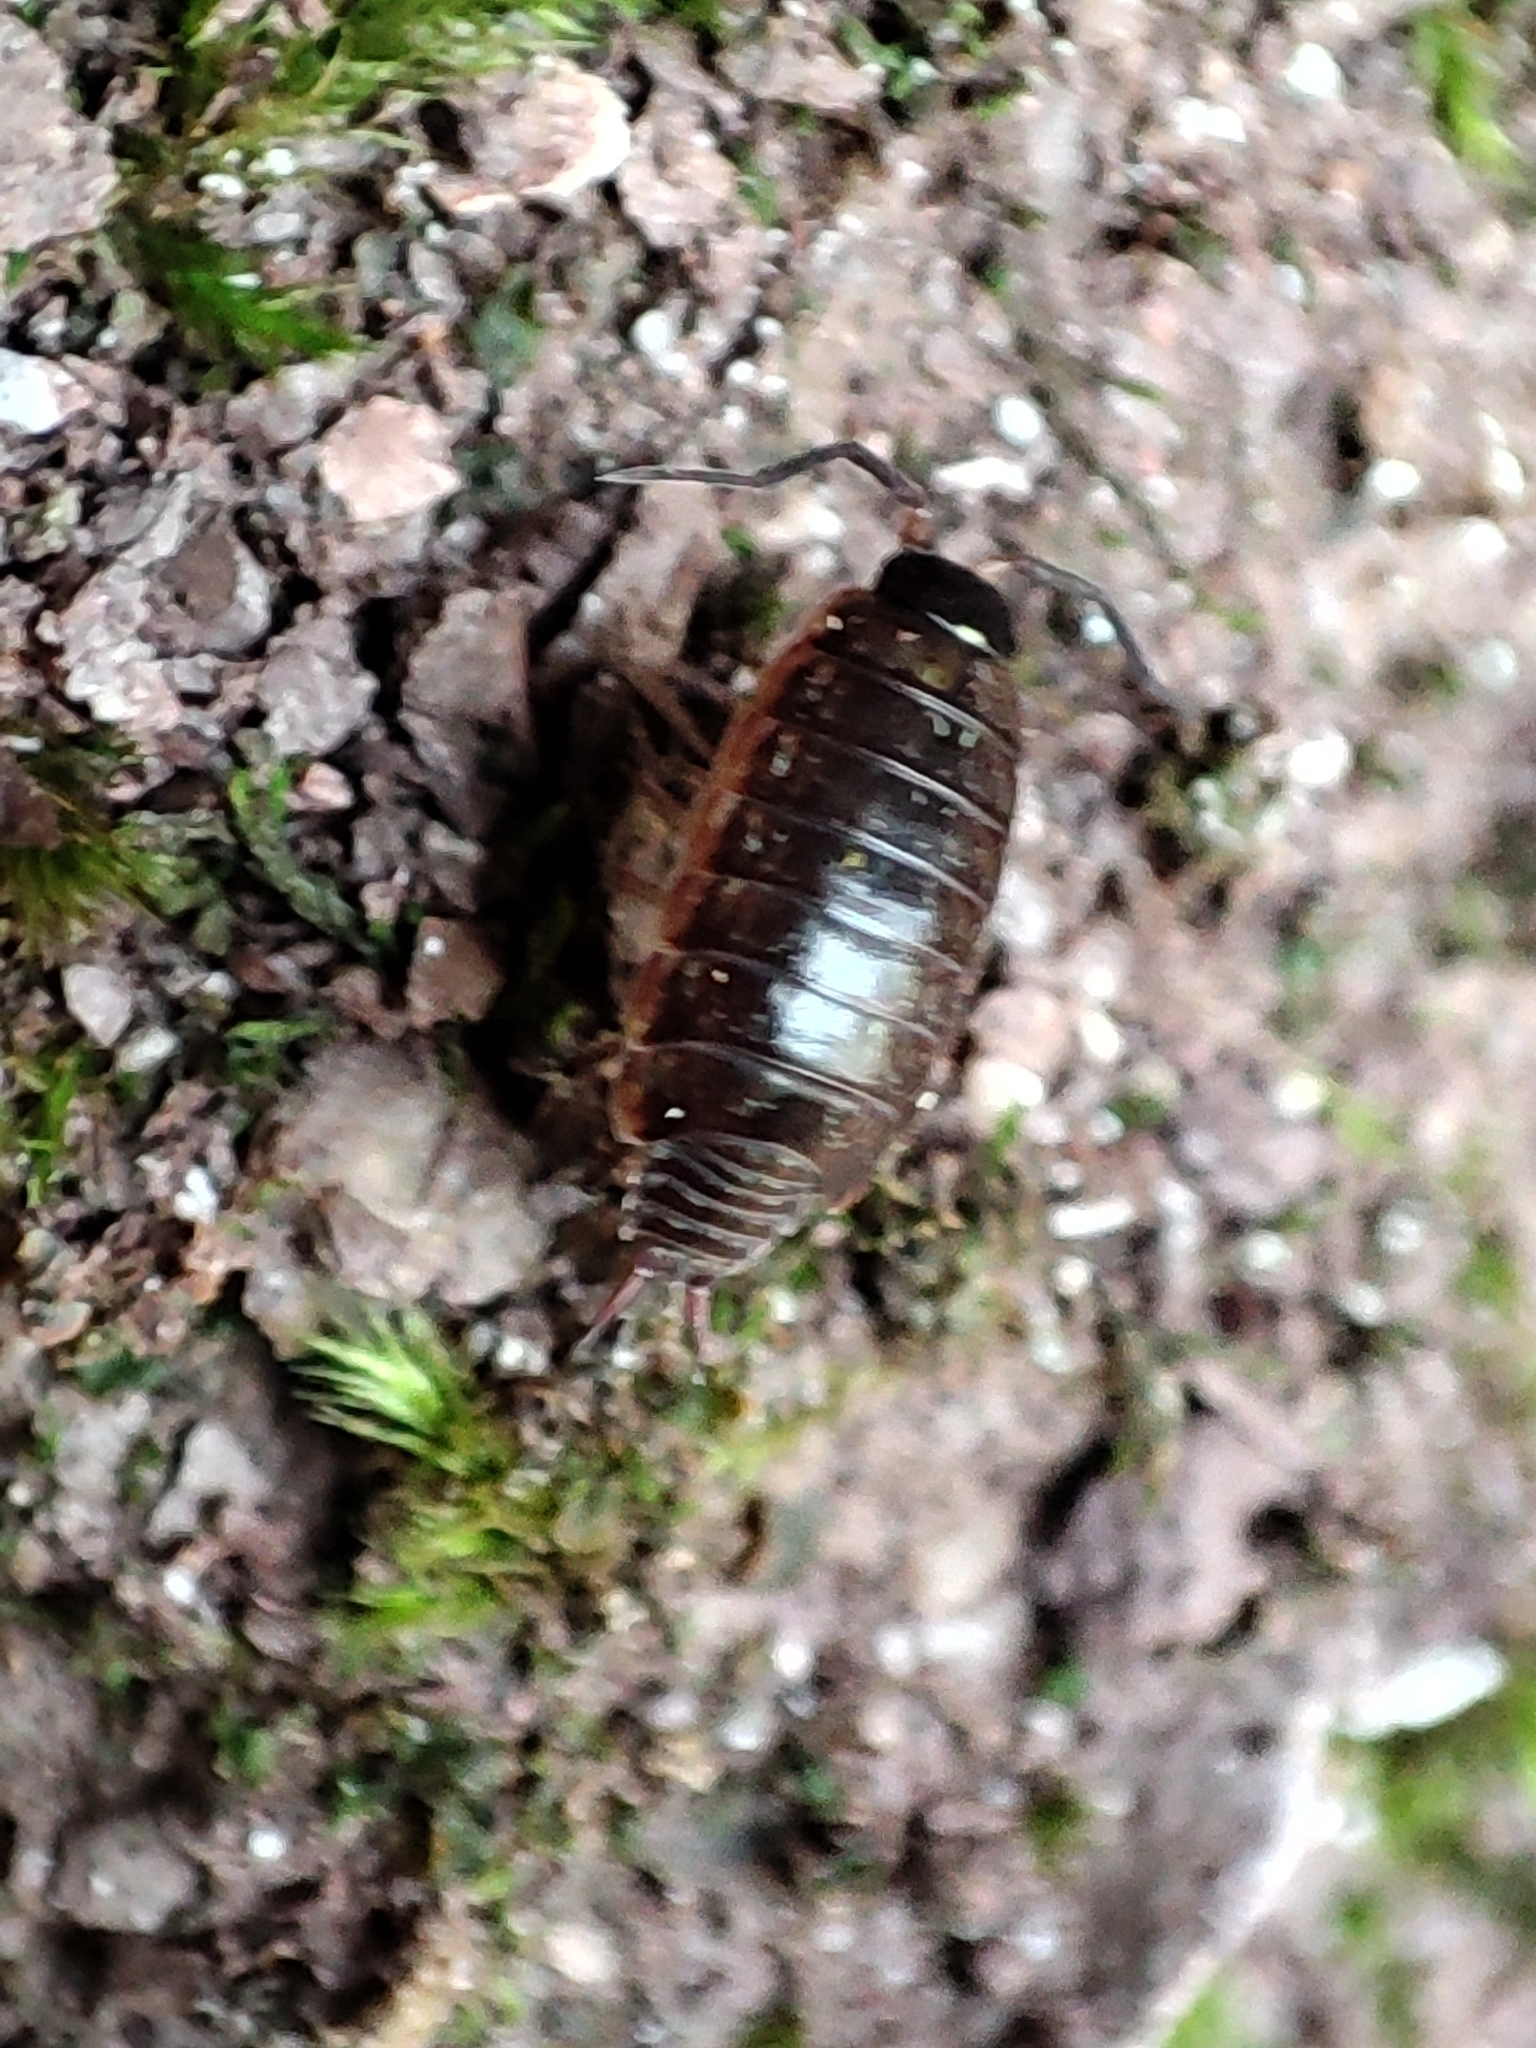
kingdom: Animalia
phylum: Arthropoda
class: Malacostraca
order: Isopoda
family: Philosciidae
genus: Philoscia
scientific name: Philoscia muscorum
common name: Common striped woodlouse
